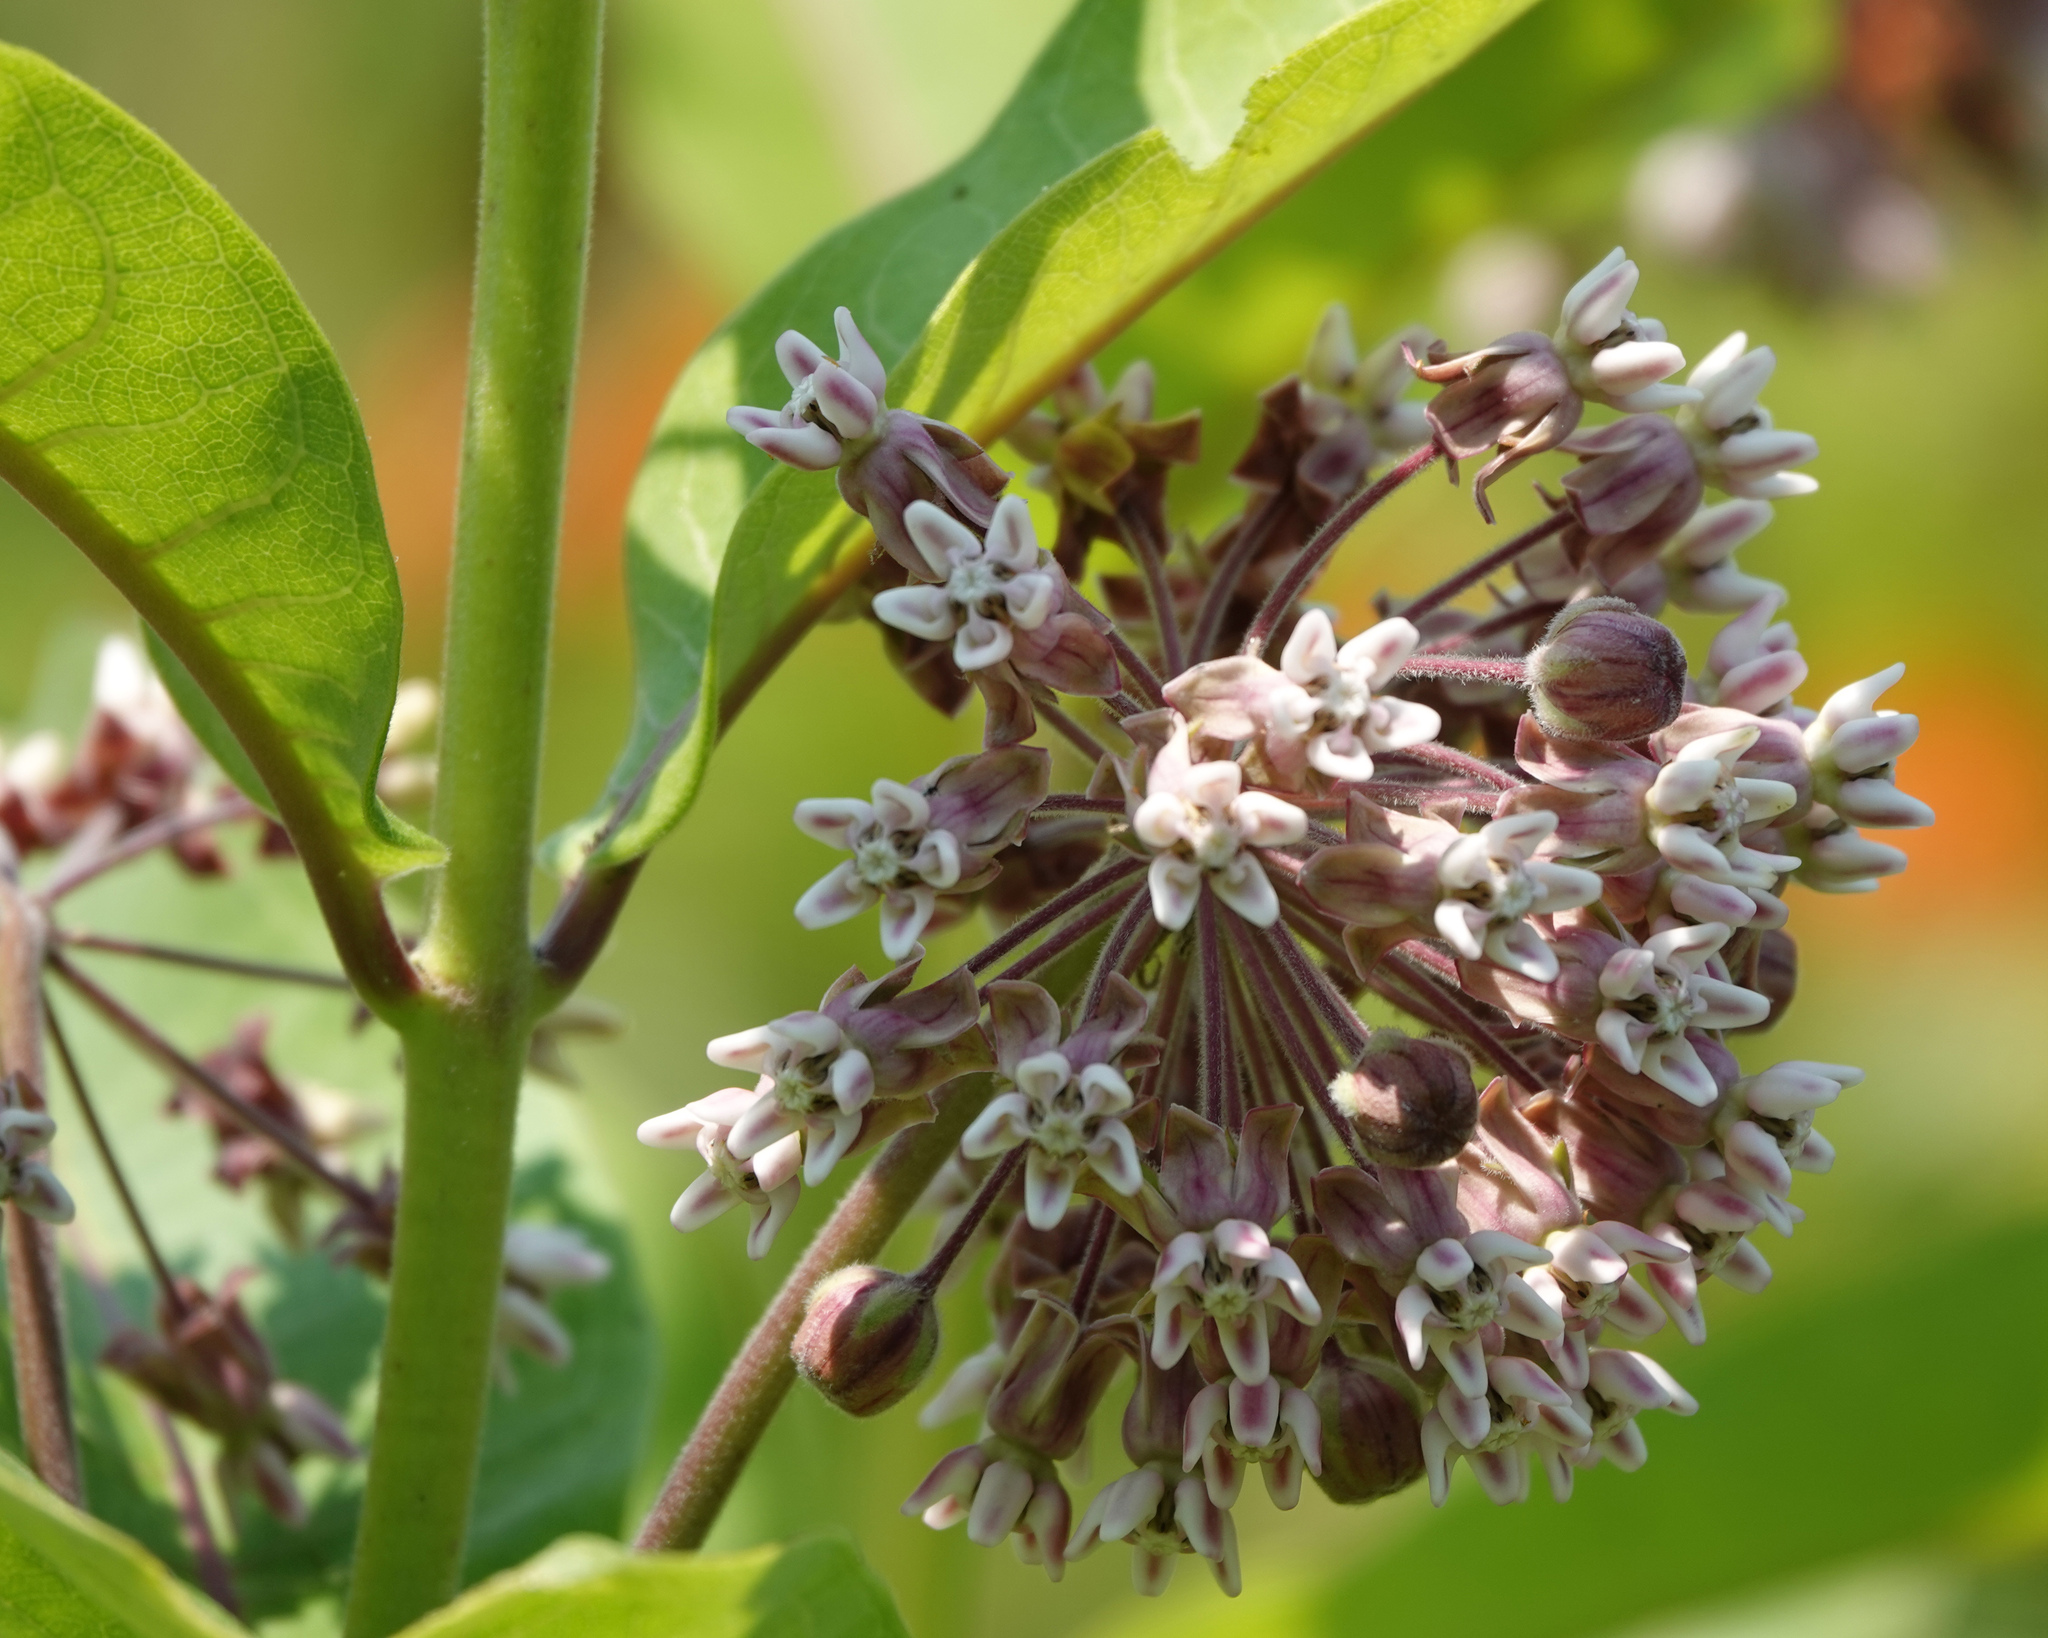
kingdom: Plantae
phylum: Tracheophyta
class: Magnoliopsida
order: Gentianales
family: Apocynaceae
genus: Asclepias
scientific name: Asclepias syriaca
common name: Common milkweed
